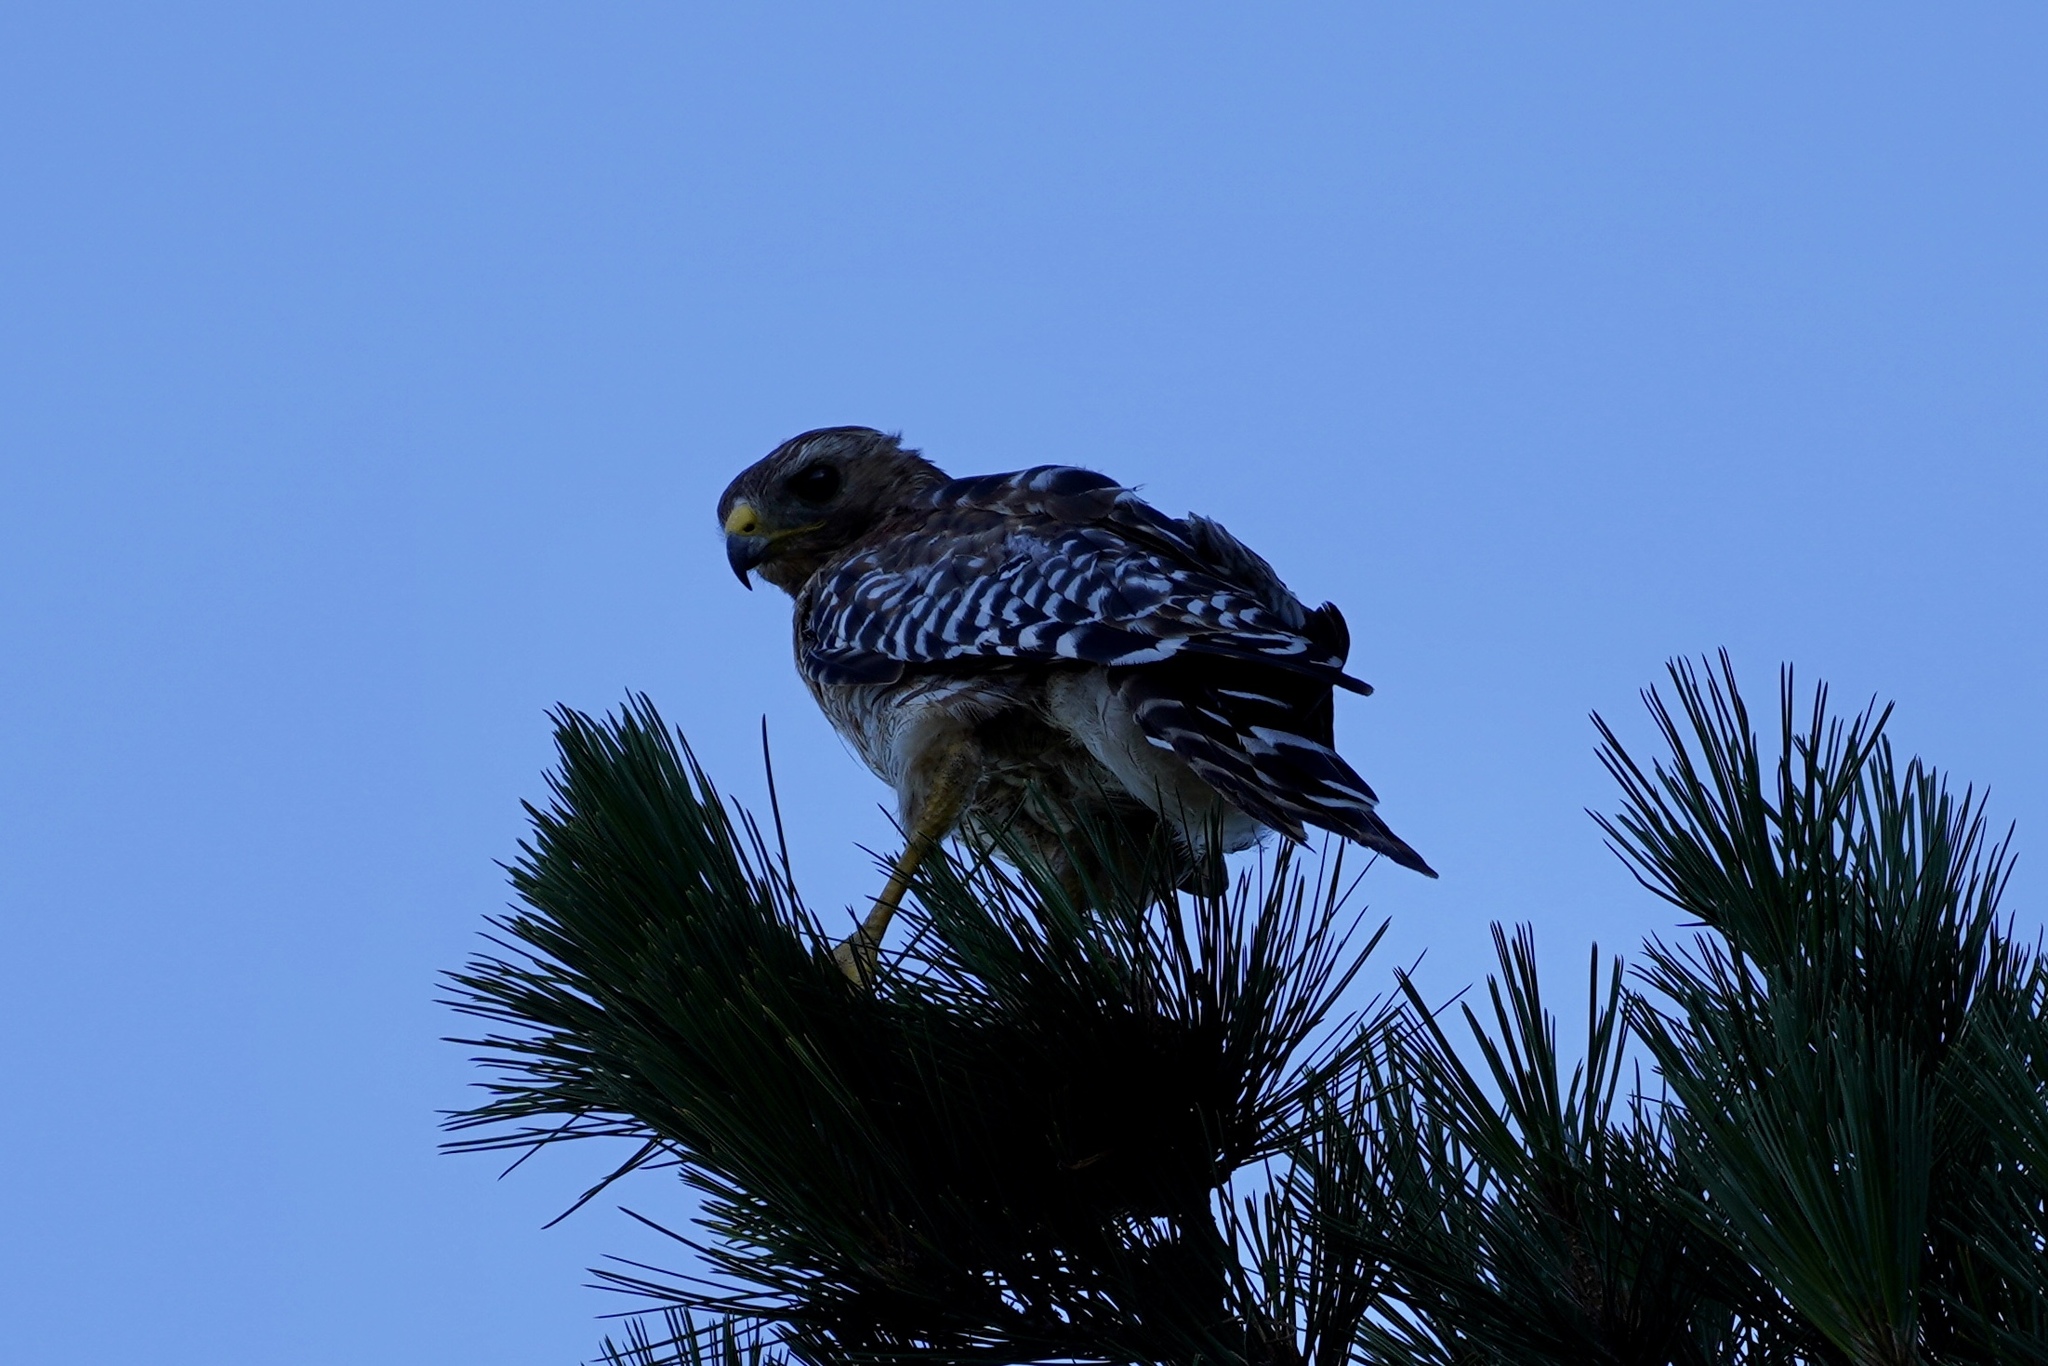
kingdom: Animalia
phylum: Chordata
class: Aves
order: Accipitriformes
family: Accipitridae
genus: Buteo
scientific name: Buteo lineatus
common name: Red-shouldered hawk
